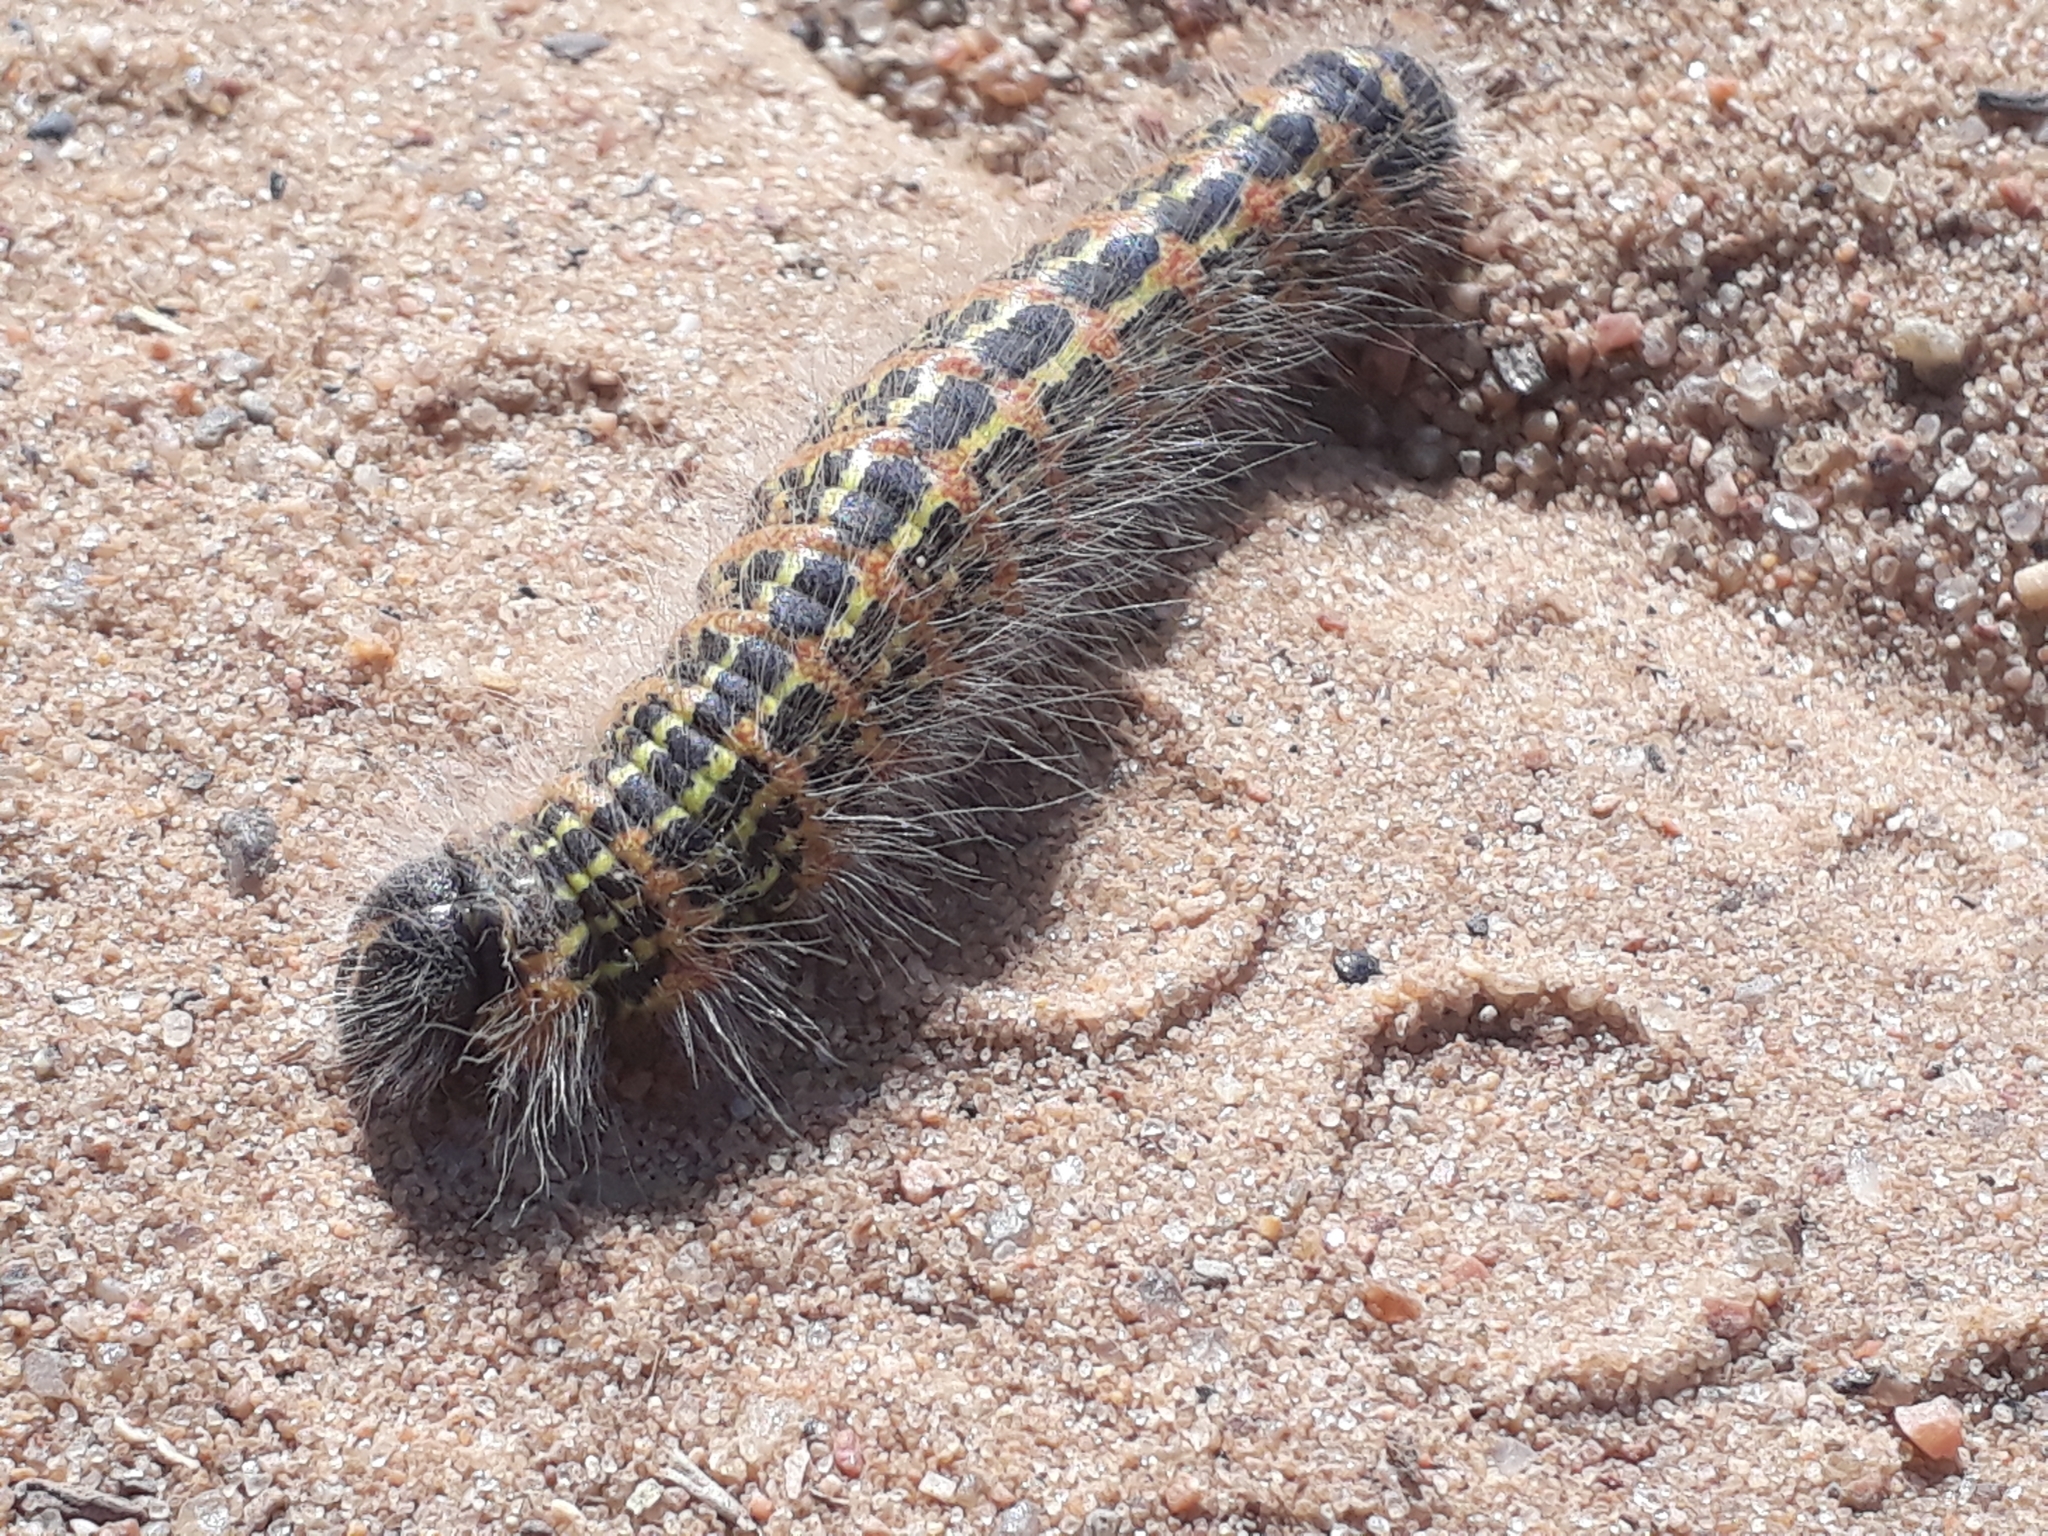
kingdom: Animalia
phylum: Arthropoda
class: Insecta
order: Lepidoptera
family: Notodontidae
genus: Phalera
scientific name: Phalera bucephala
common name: Buff-tip
